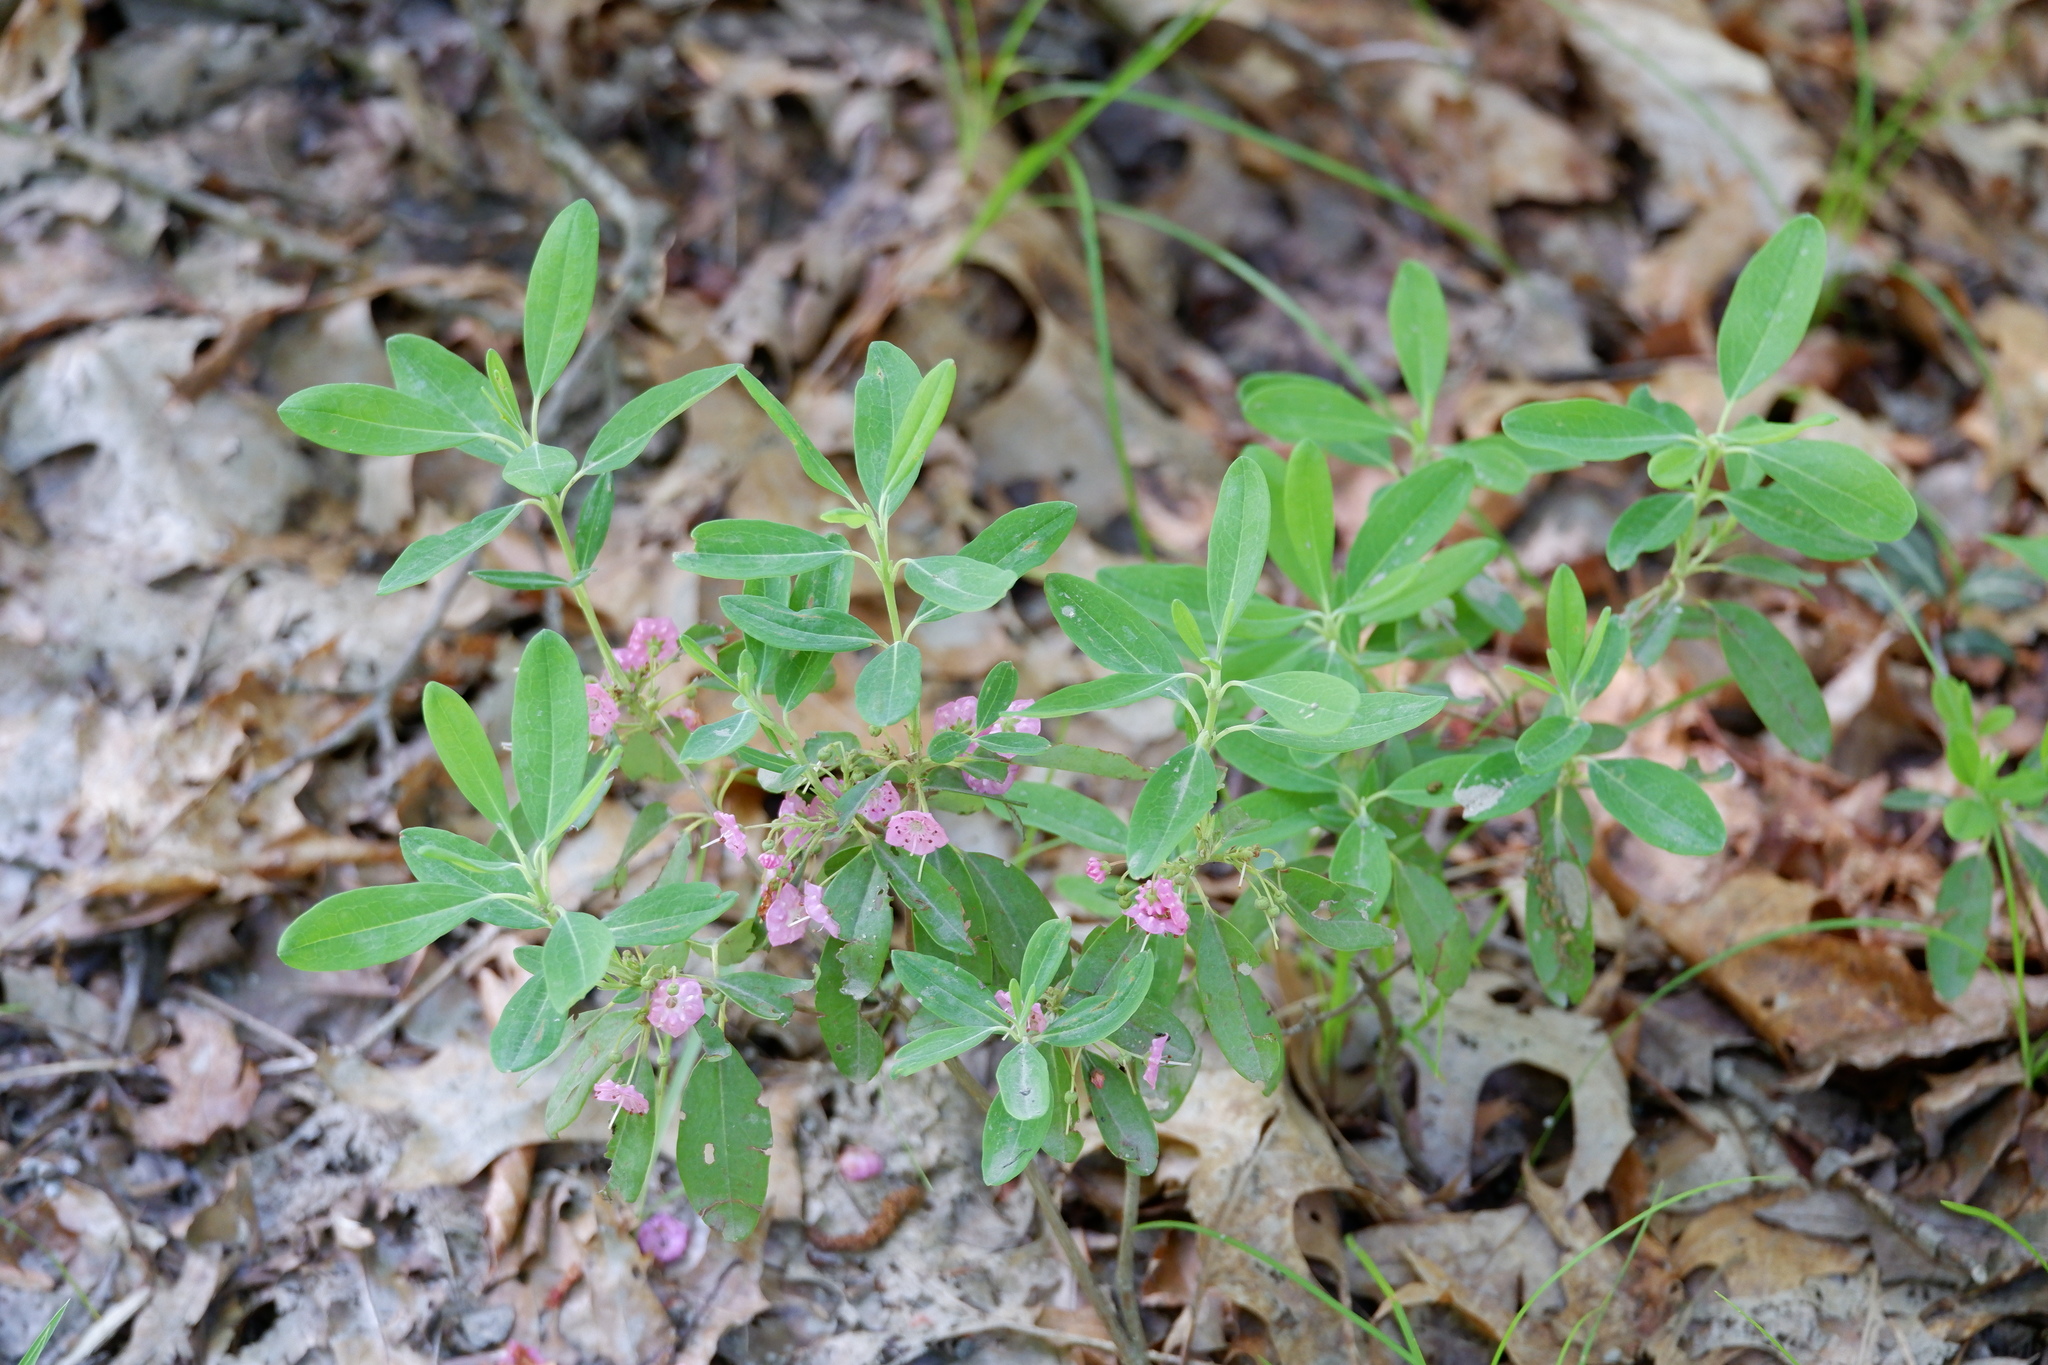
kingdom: Plantae
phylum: Tracheophyta
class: Magnoliopsida
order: Ericales
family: Ericaceae
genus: Kalmia
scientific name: Kalmia angustifolia
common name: Sheep-laurel
